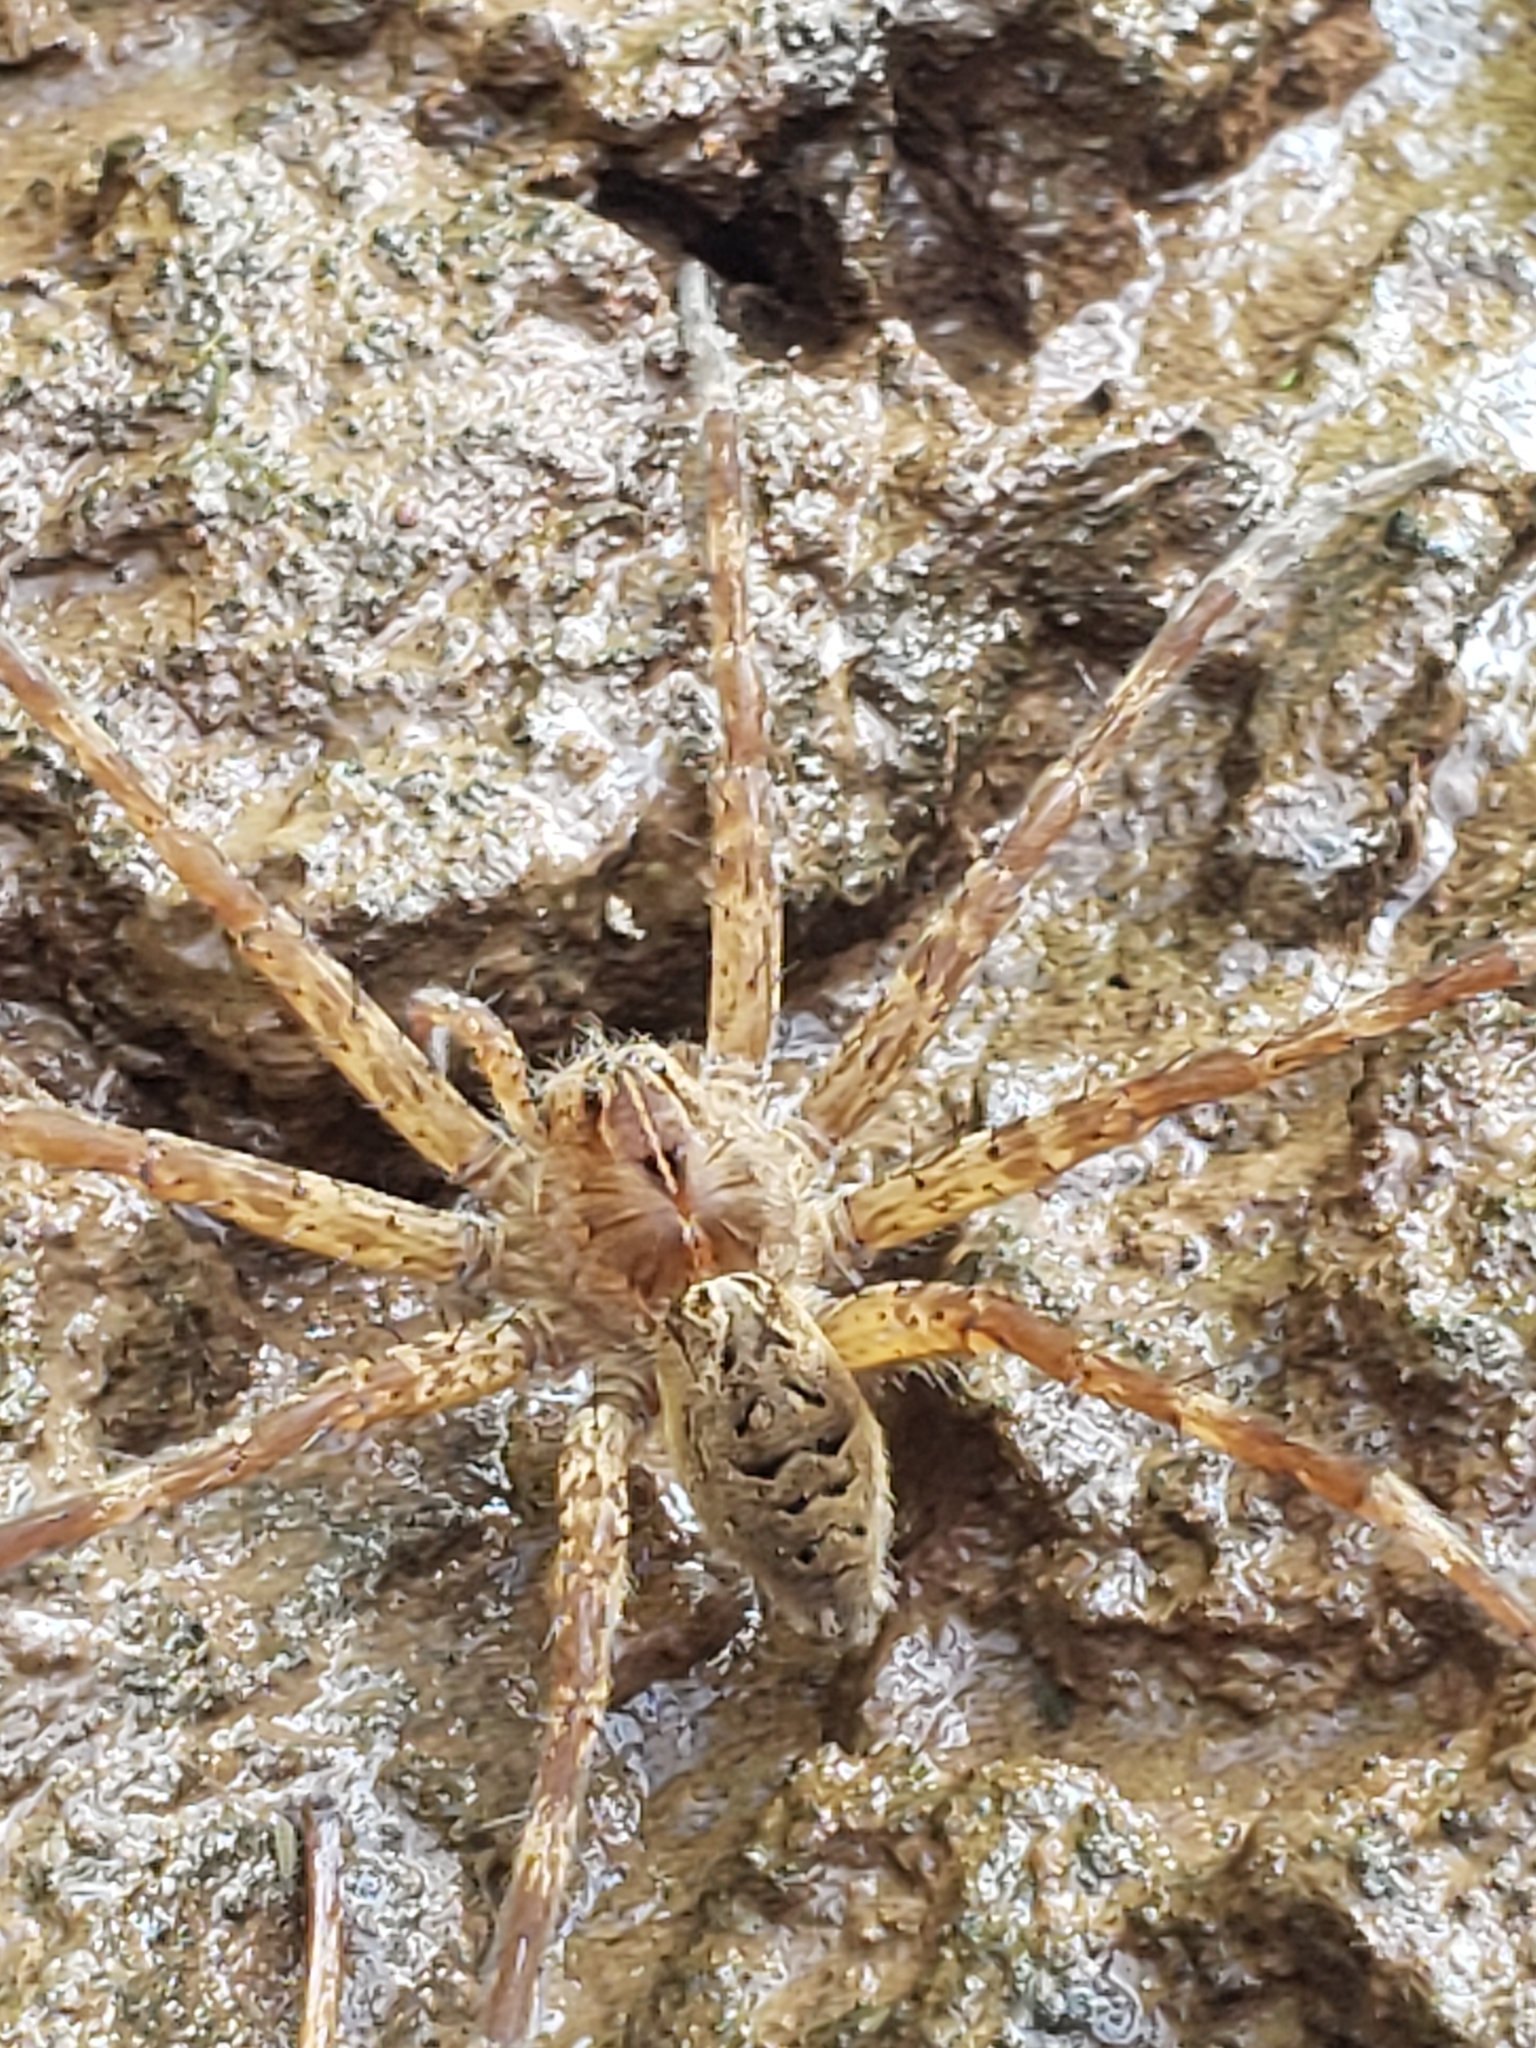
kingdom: Animalia
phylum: Arthropoda
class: Arachnida
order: Araneae
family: Pisauridae
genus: Dolomedes
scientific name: Dolomedes scriptus
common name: Striped fishing spider
